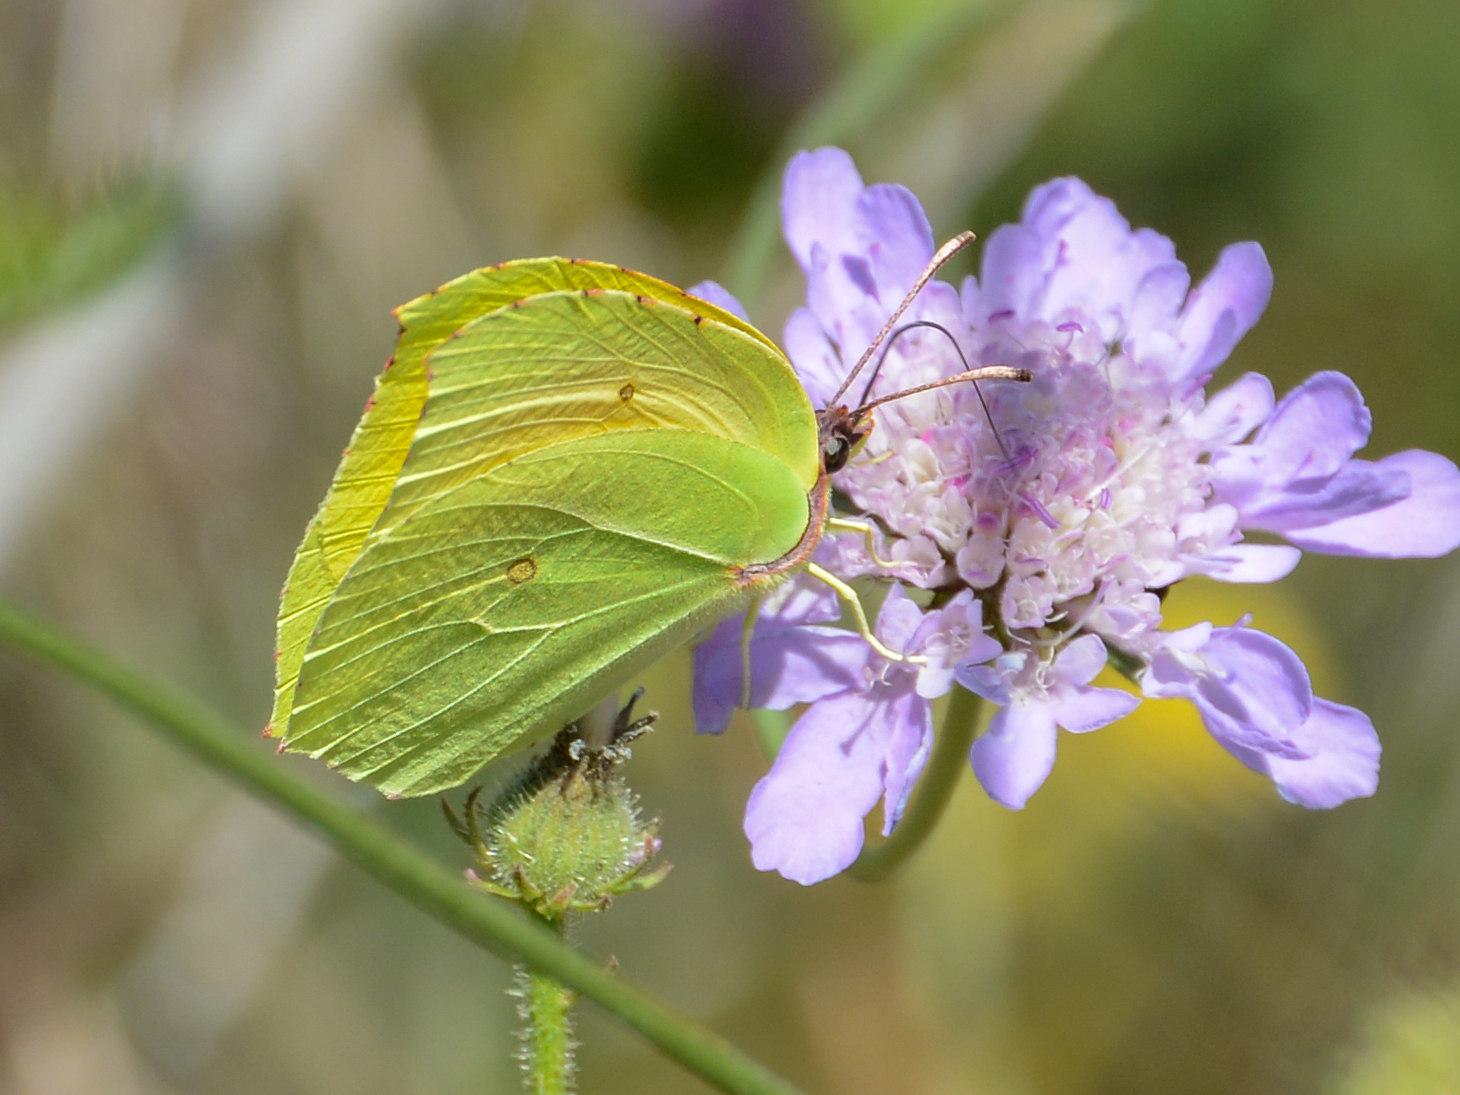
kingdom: Animalia
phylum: Arthropoda
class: Insecta
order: Lepidoptera
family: Pieridae
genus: Gonepteryx
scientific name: Gonepteryx cleopatra
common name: Cleopatra
